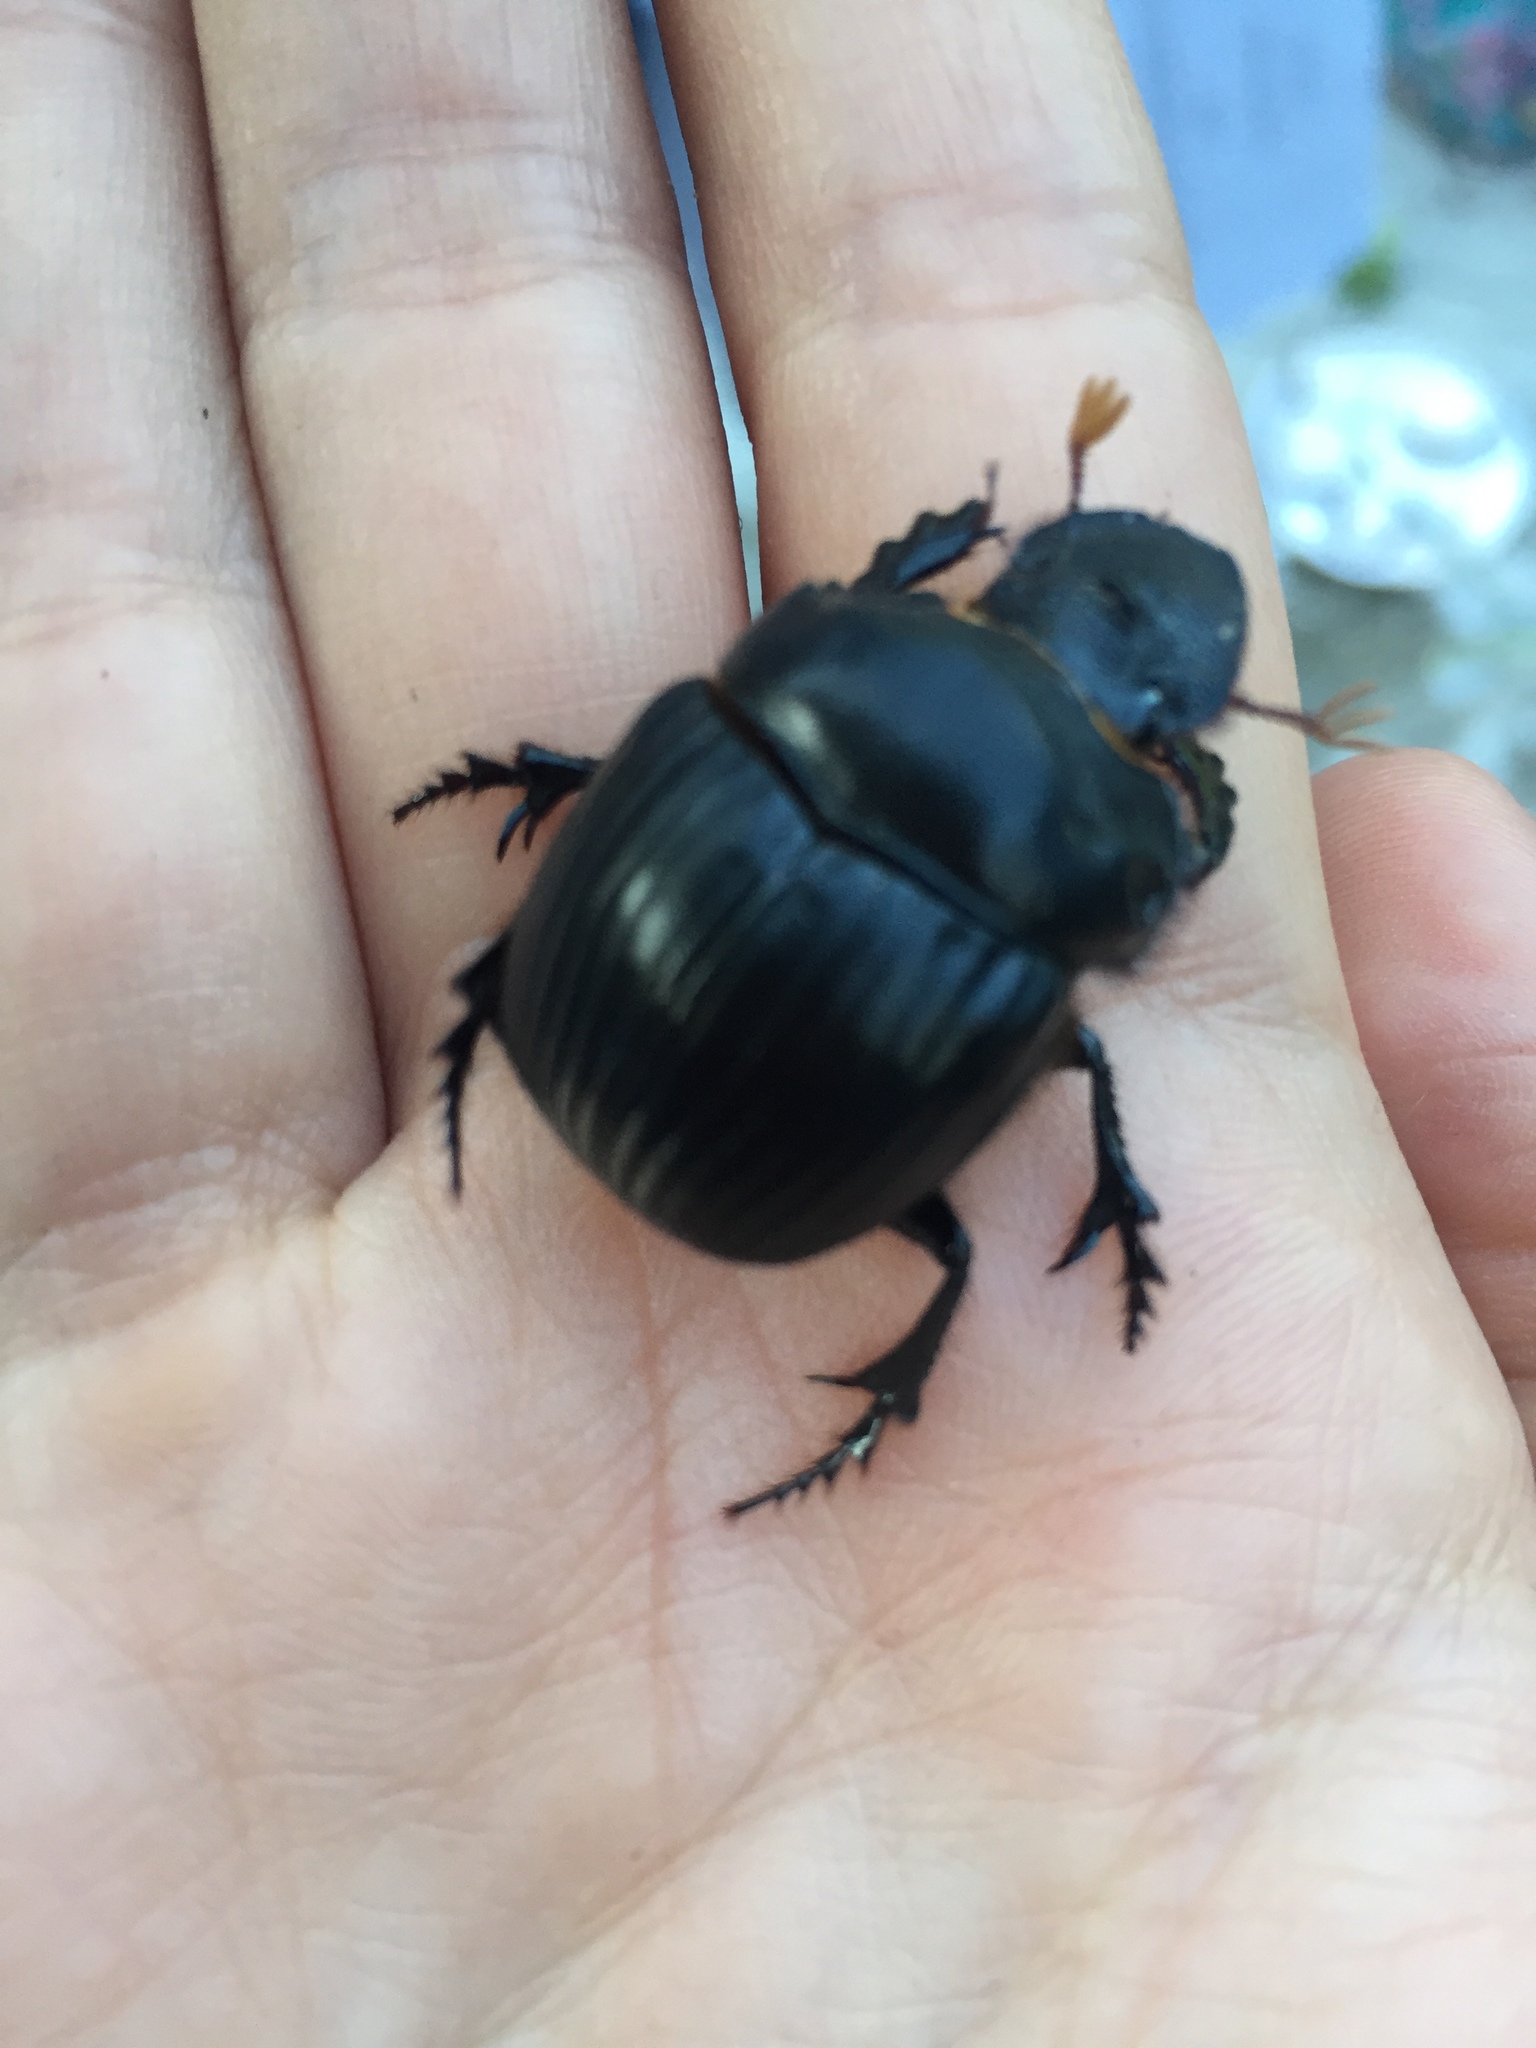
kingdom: Animalia
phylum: Arthropoda
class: Insecta
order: Coleoptera
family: Scarabaeidae
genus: Dichotomius
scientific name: Dichotomius colonicus
